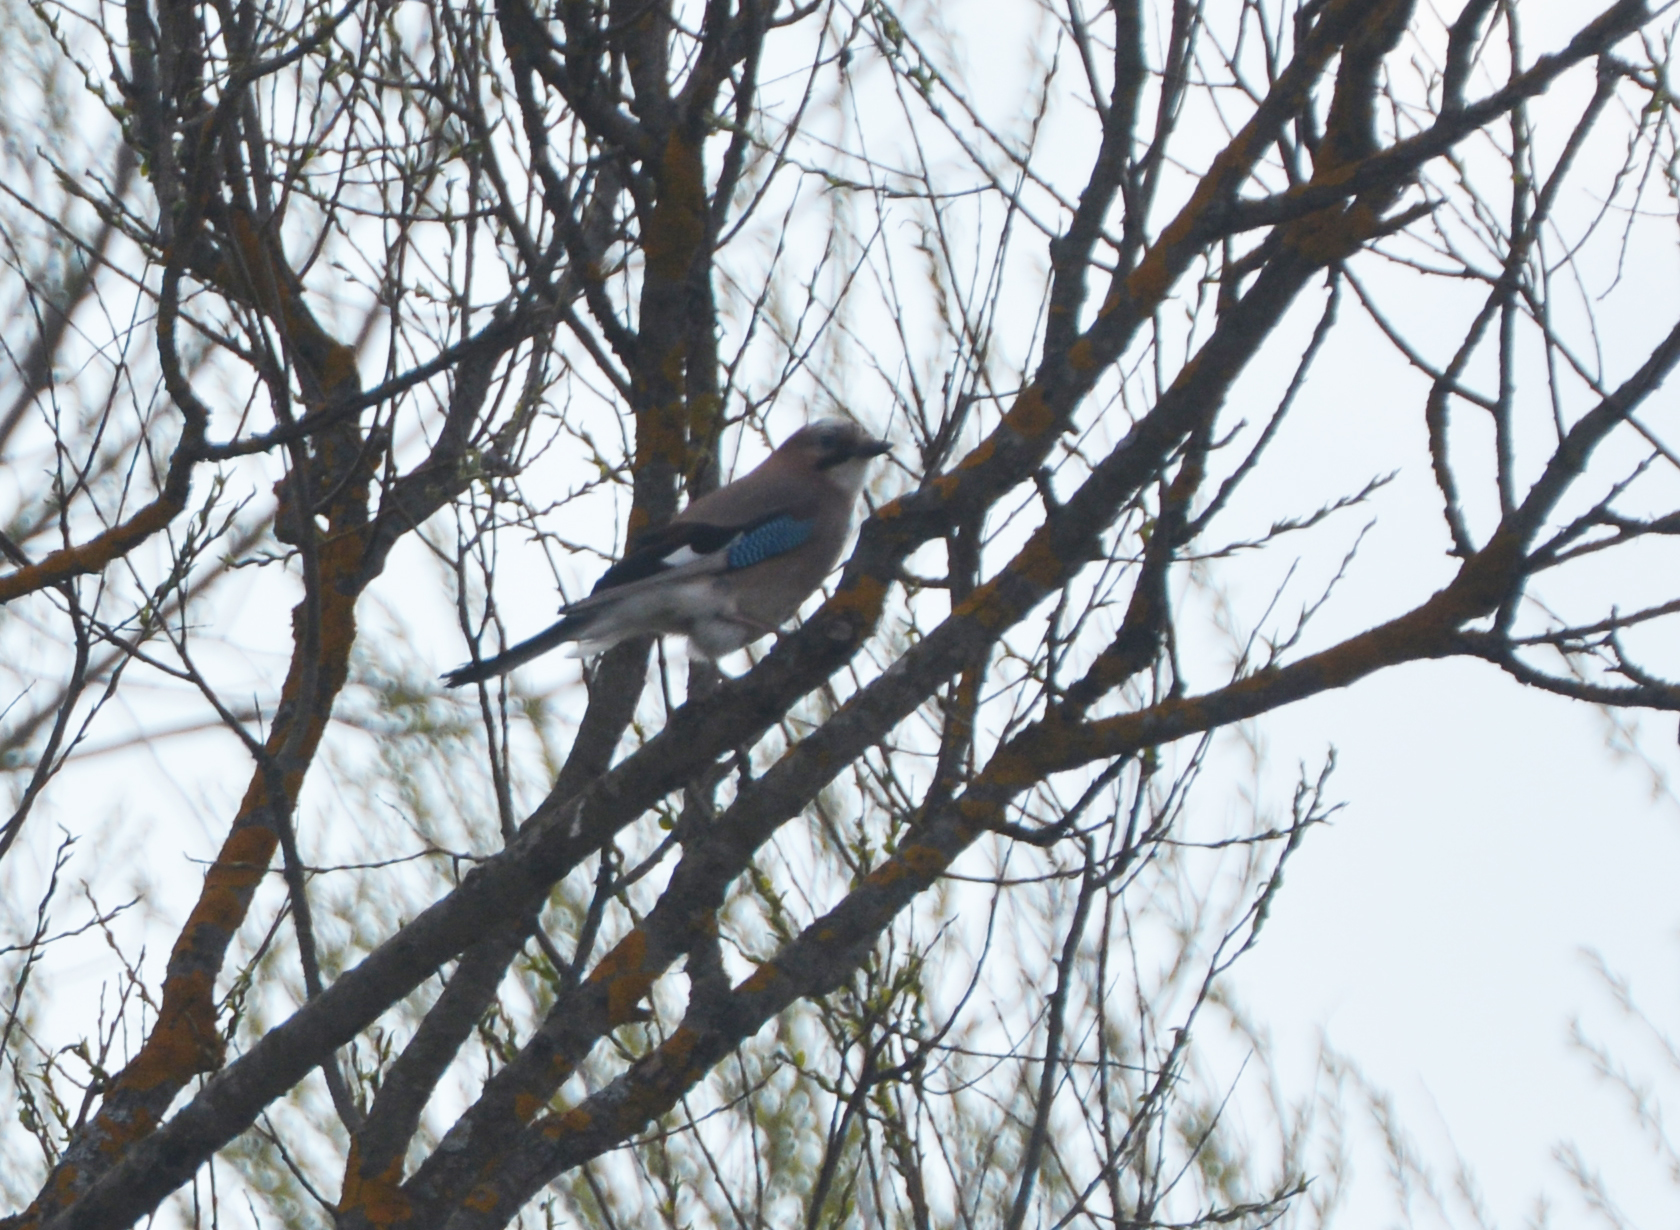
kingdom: Animalia
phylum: Chordata
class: Aves
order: Passeriformes
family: Corvidae
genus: Garrulus
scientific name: Garrulus glandarius
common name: Eurasian jay
